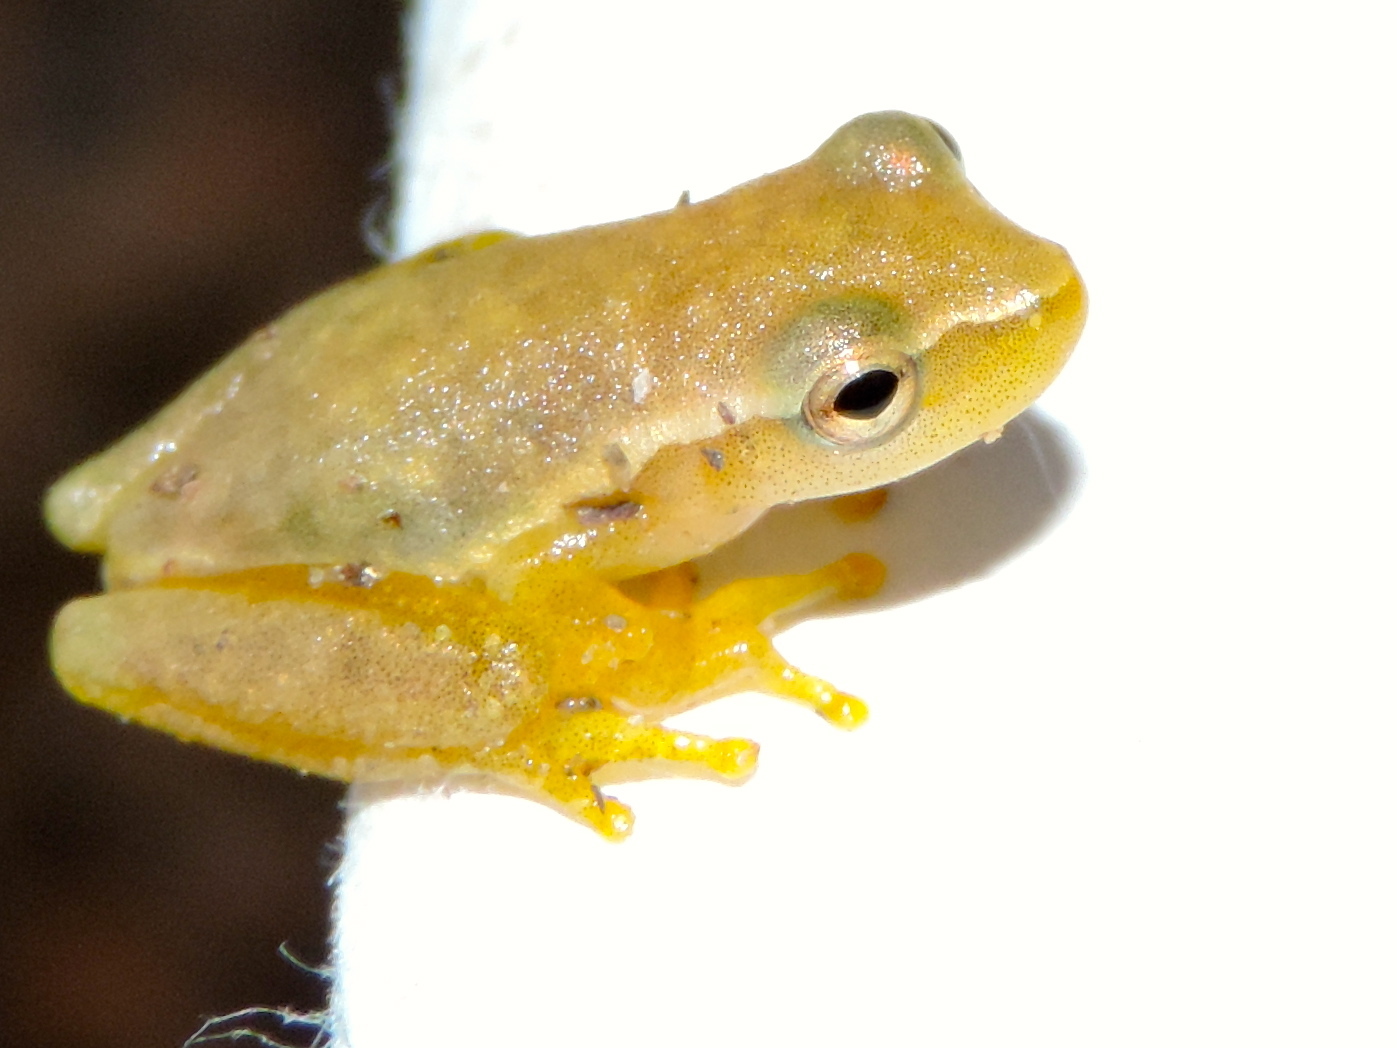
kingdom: Animalia
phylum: Chordata
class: Amphibia
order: Anura
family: Hylidae
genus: Tlalocohyla
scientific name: Tlalocohyla smithii
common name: Dwarf mexican treefrog
